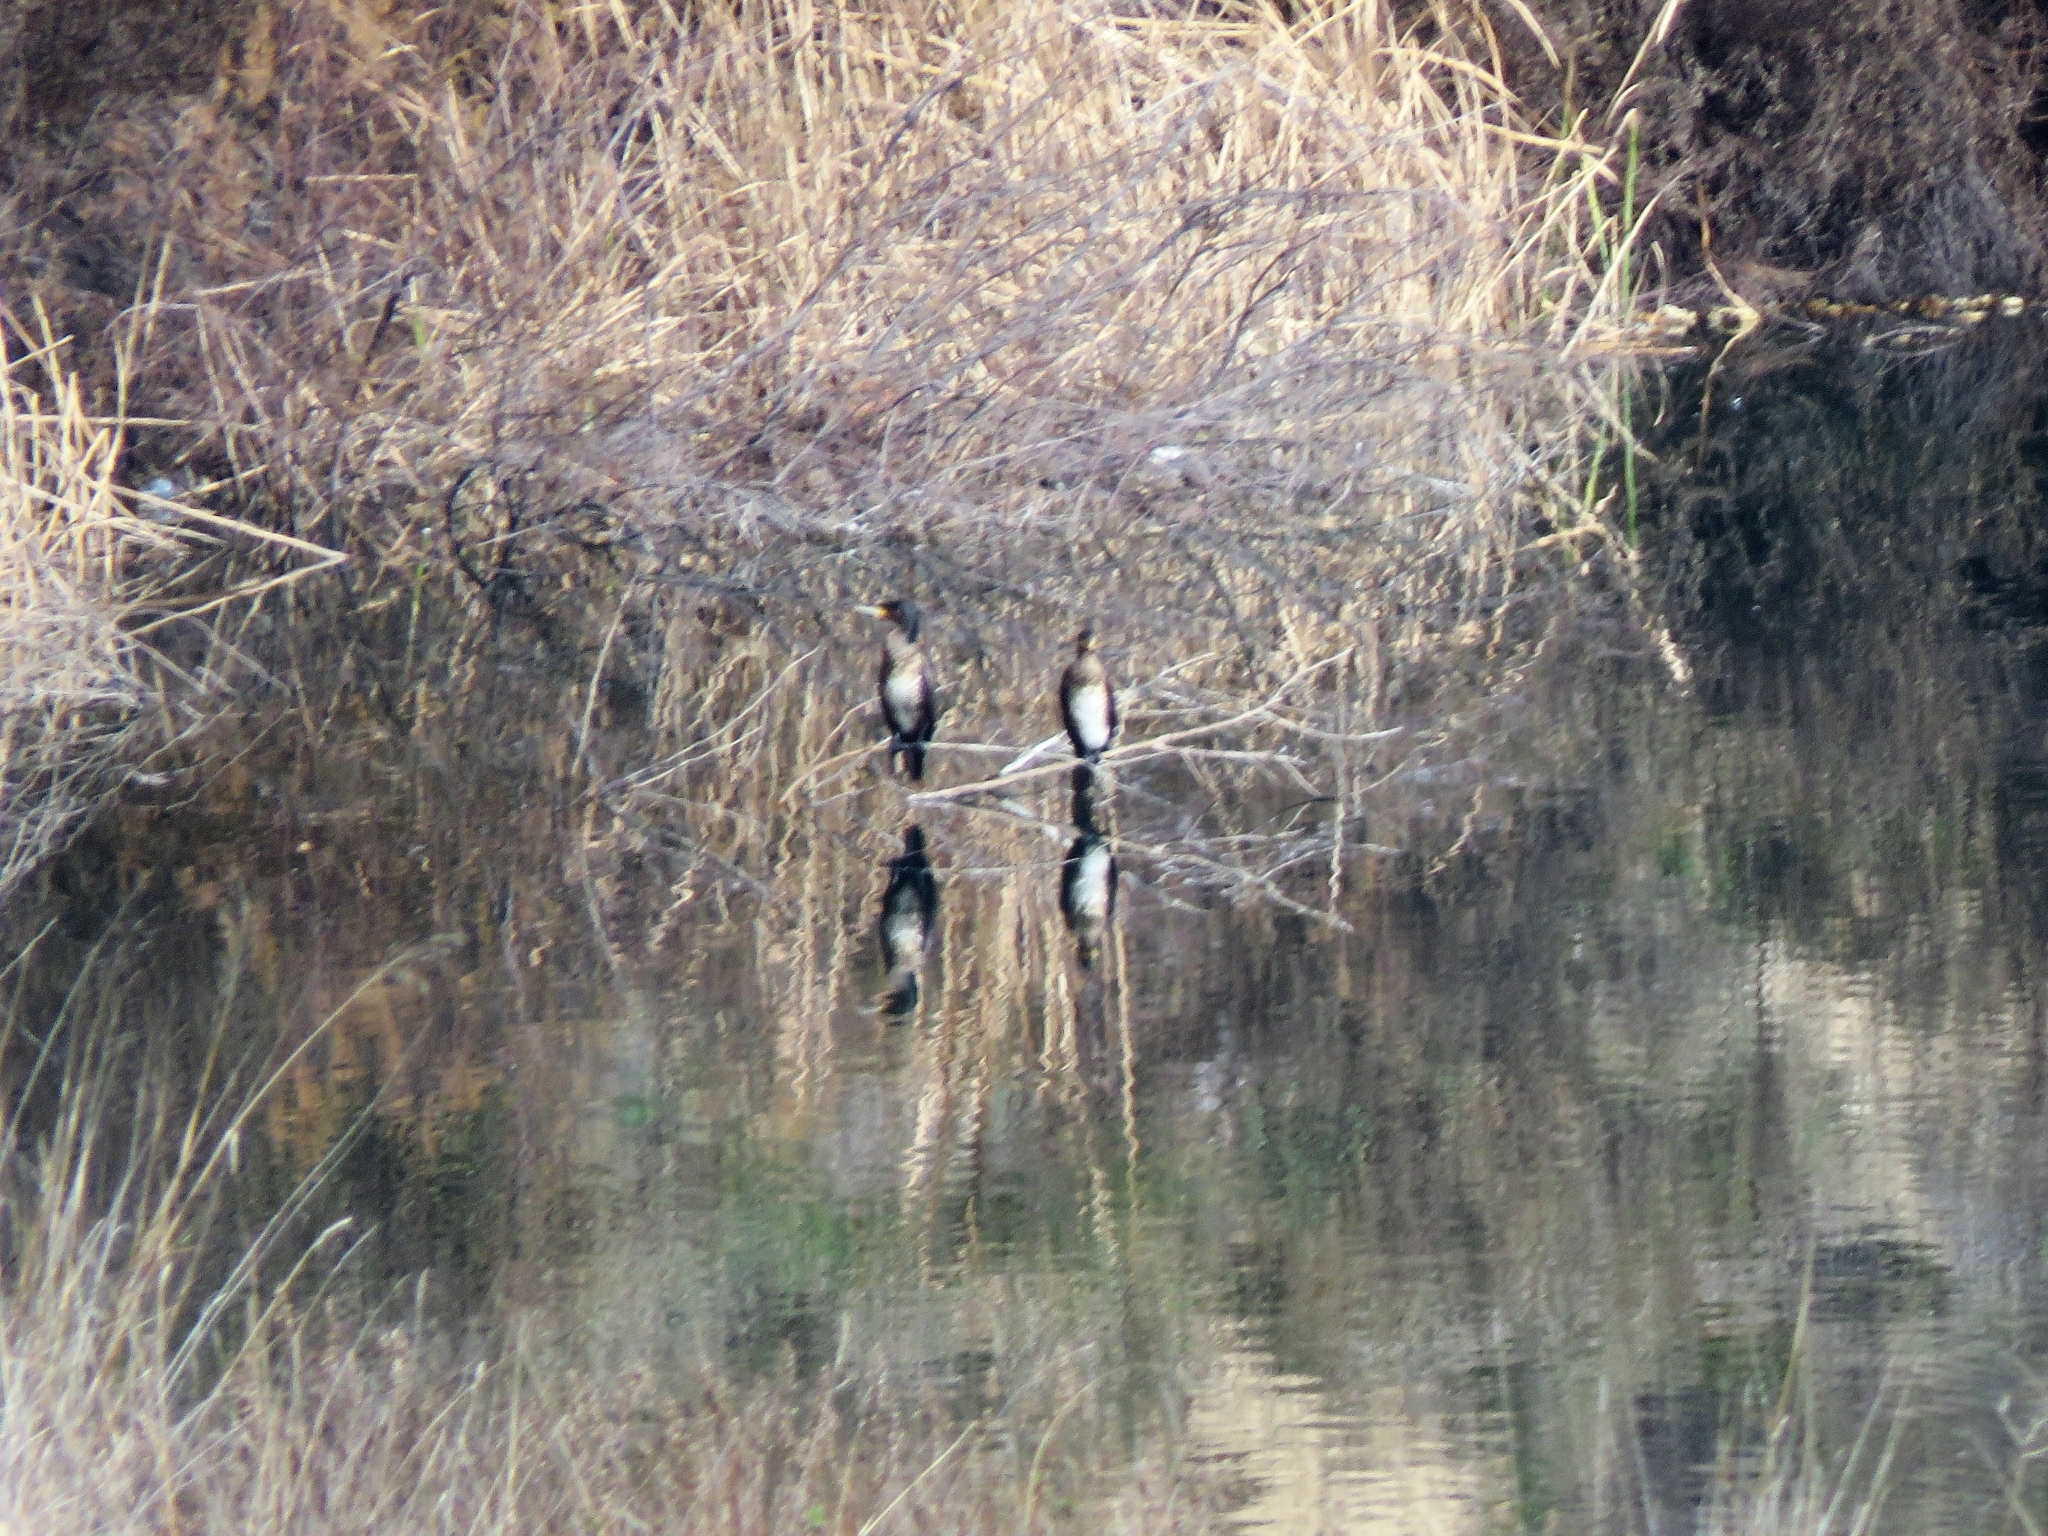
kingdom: Animalia
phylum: Chordata
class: Aves
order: Suliformes
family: Phalacrocoracidae
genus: Phalacrocorax
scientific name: Phalacrocorax carbo
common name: Great cormorant
